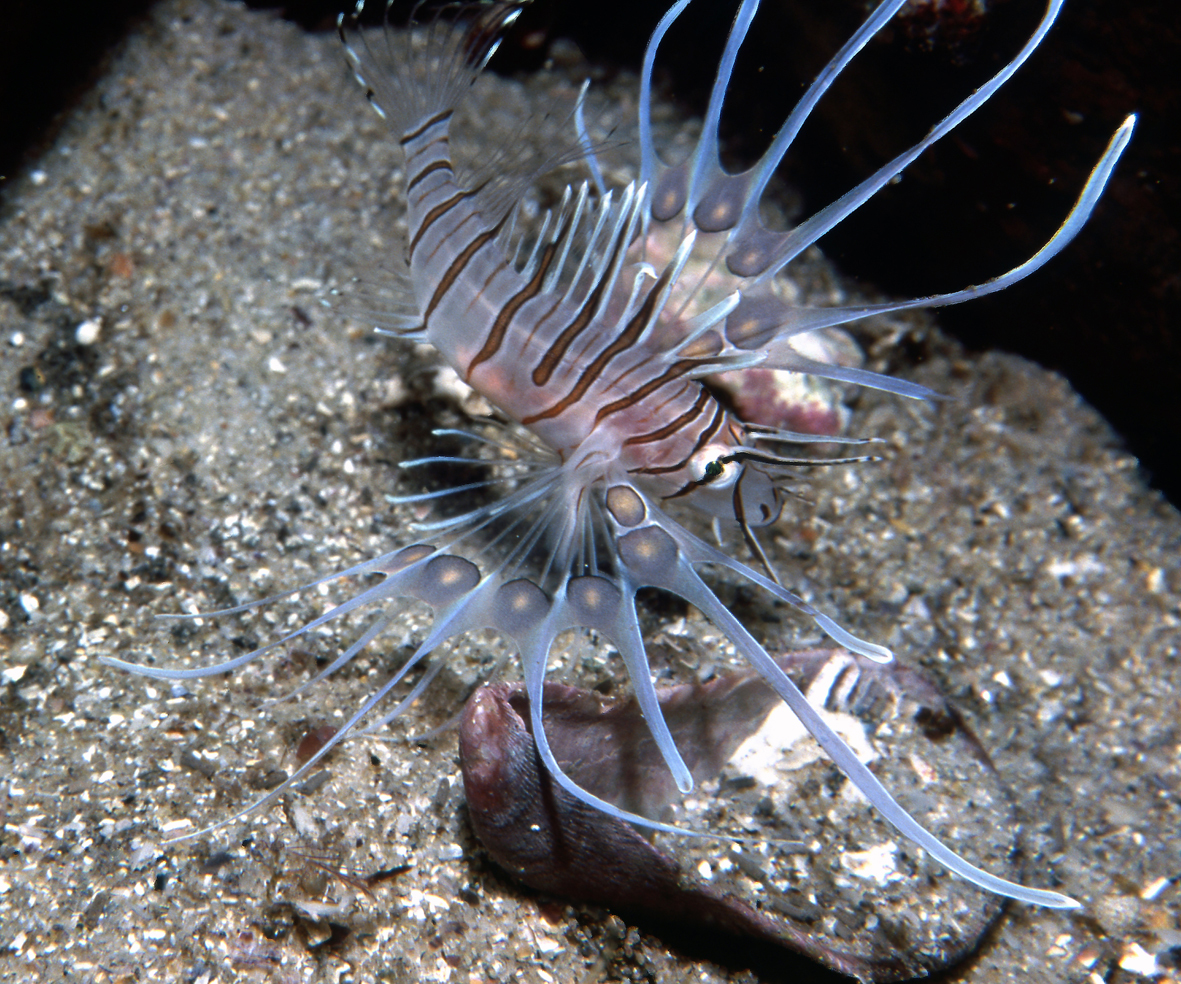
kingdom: Animalia
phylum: Chordata
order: Scorpaeniformes
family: Scorpaenidae
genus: Pterois
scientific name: Pterois volitans
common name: Lionfish
